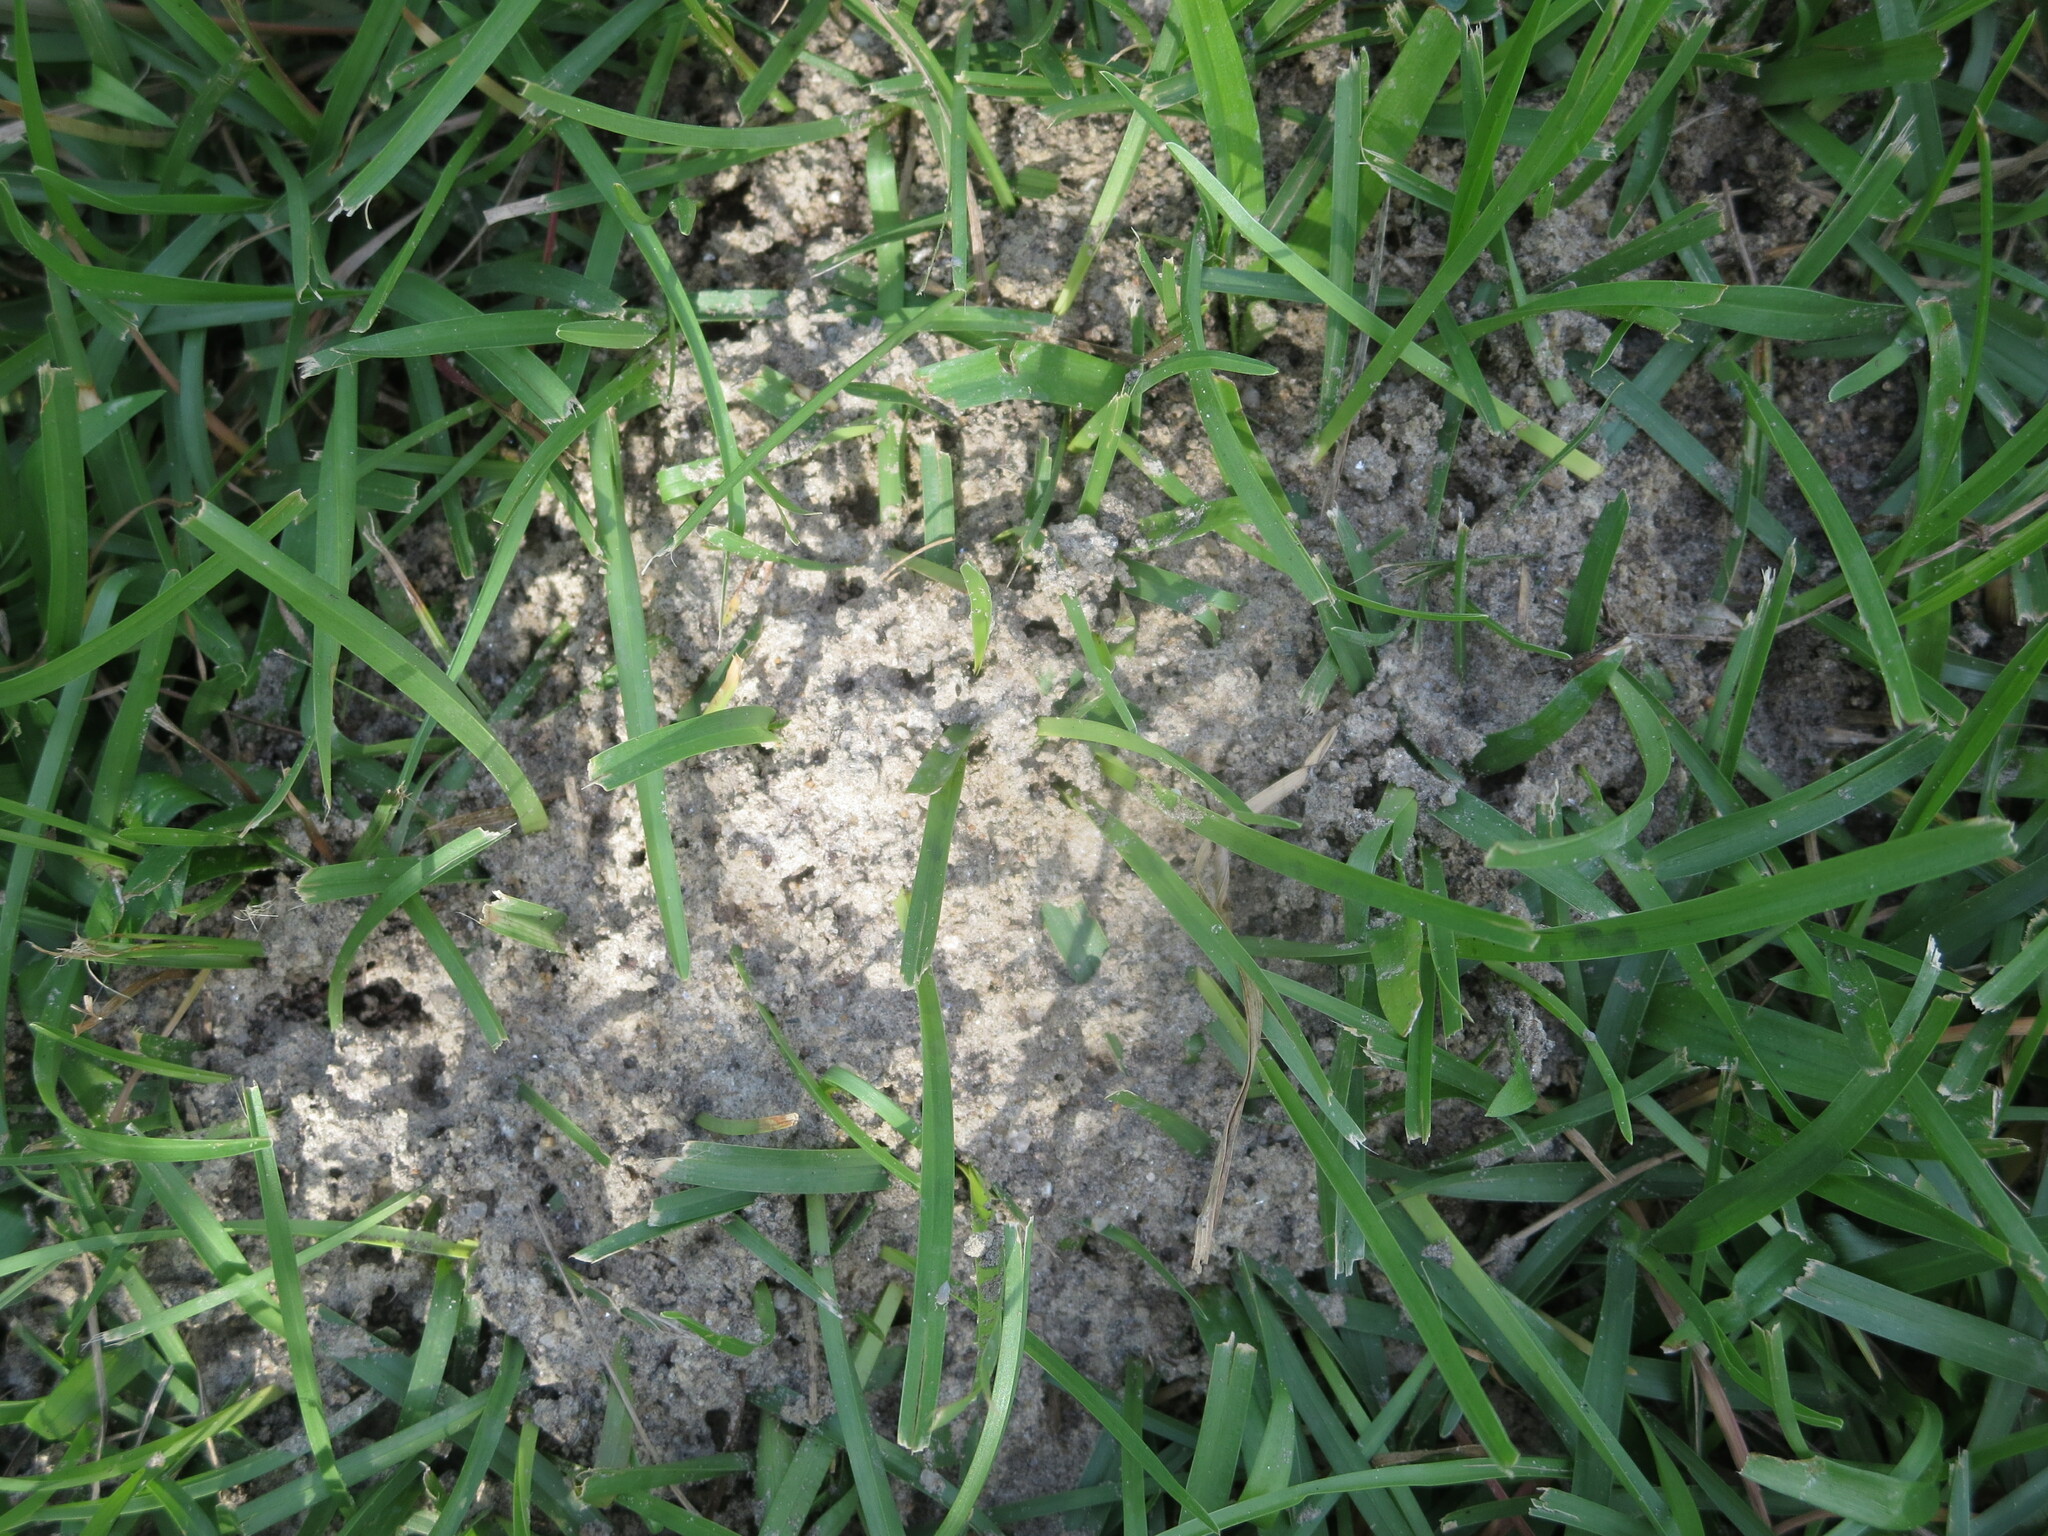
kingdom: Animalia
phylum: Arthropoda
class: Insecta
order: Hymenoptera
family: Formicidae
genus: Solenopsis
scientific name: Solenopsis invicta
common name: Red imported fire ant
